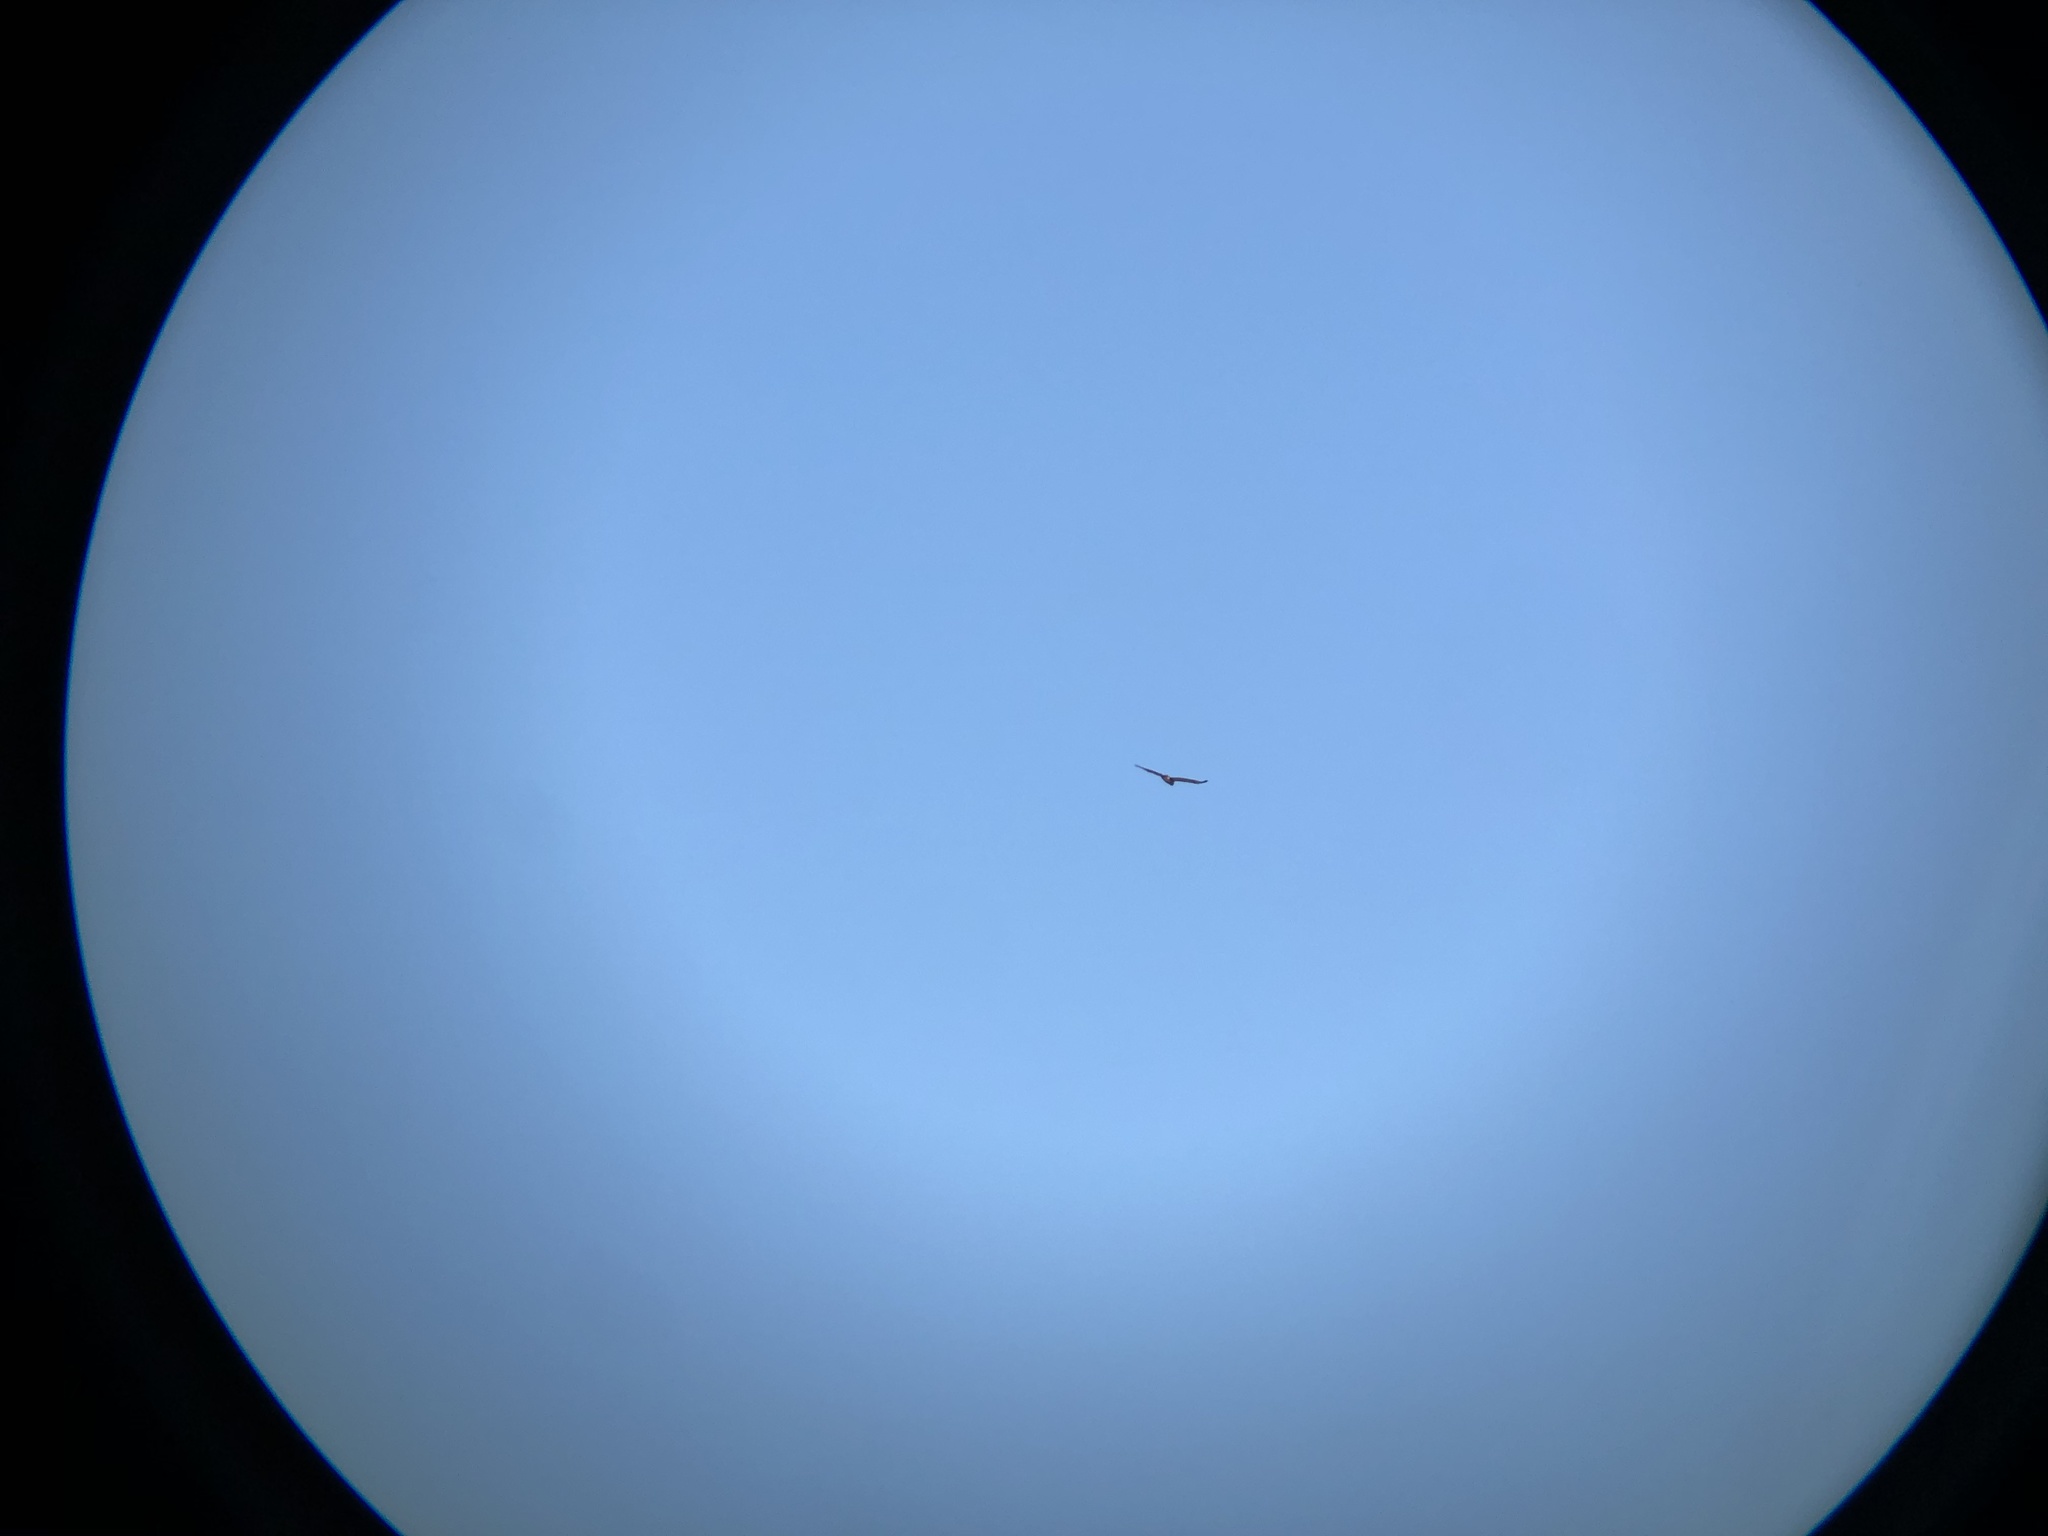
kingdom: Animalia
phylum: Chordata
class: Aves
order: Accipitriformes
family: Accipitridae
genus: Buteo
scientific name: Buteo jamaicensis
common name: Red-tailed hawk
